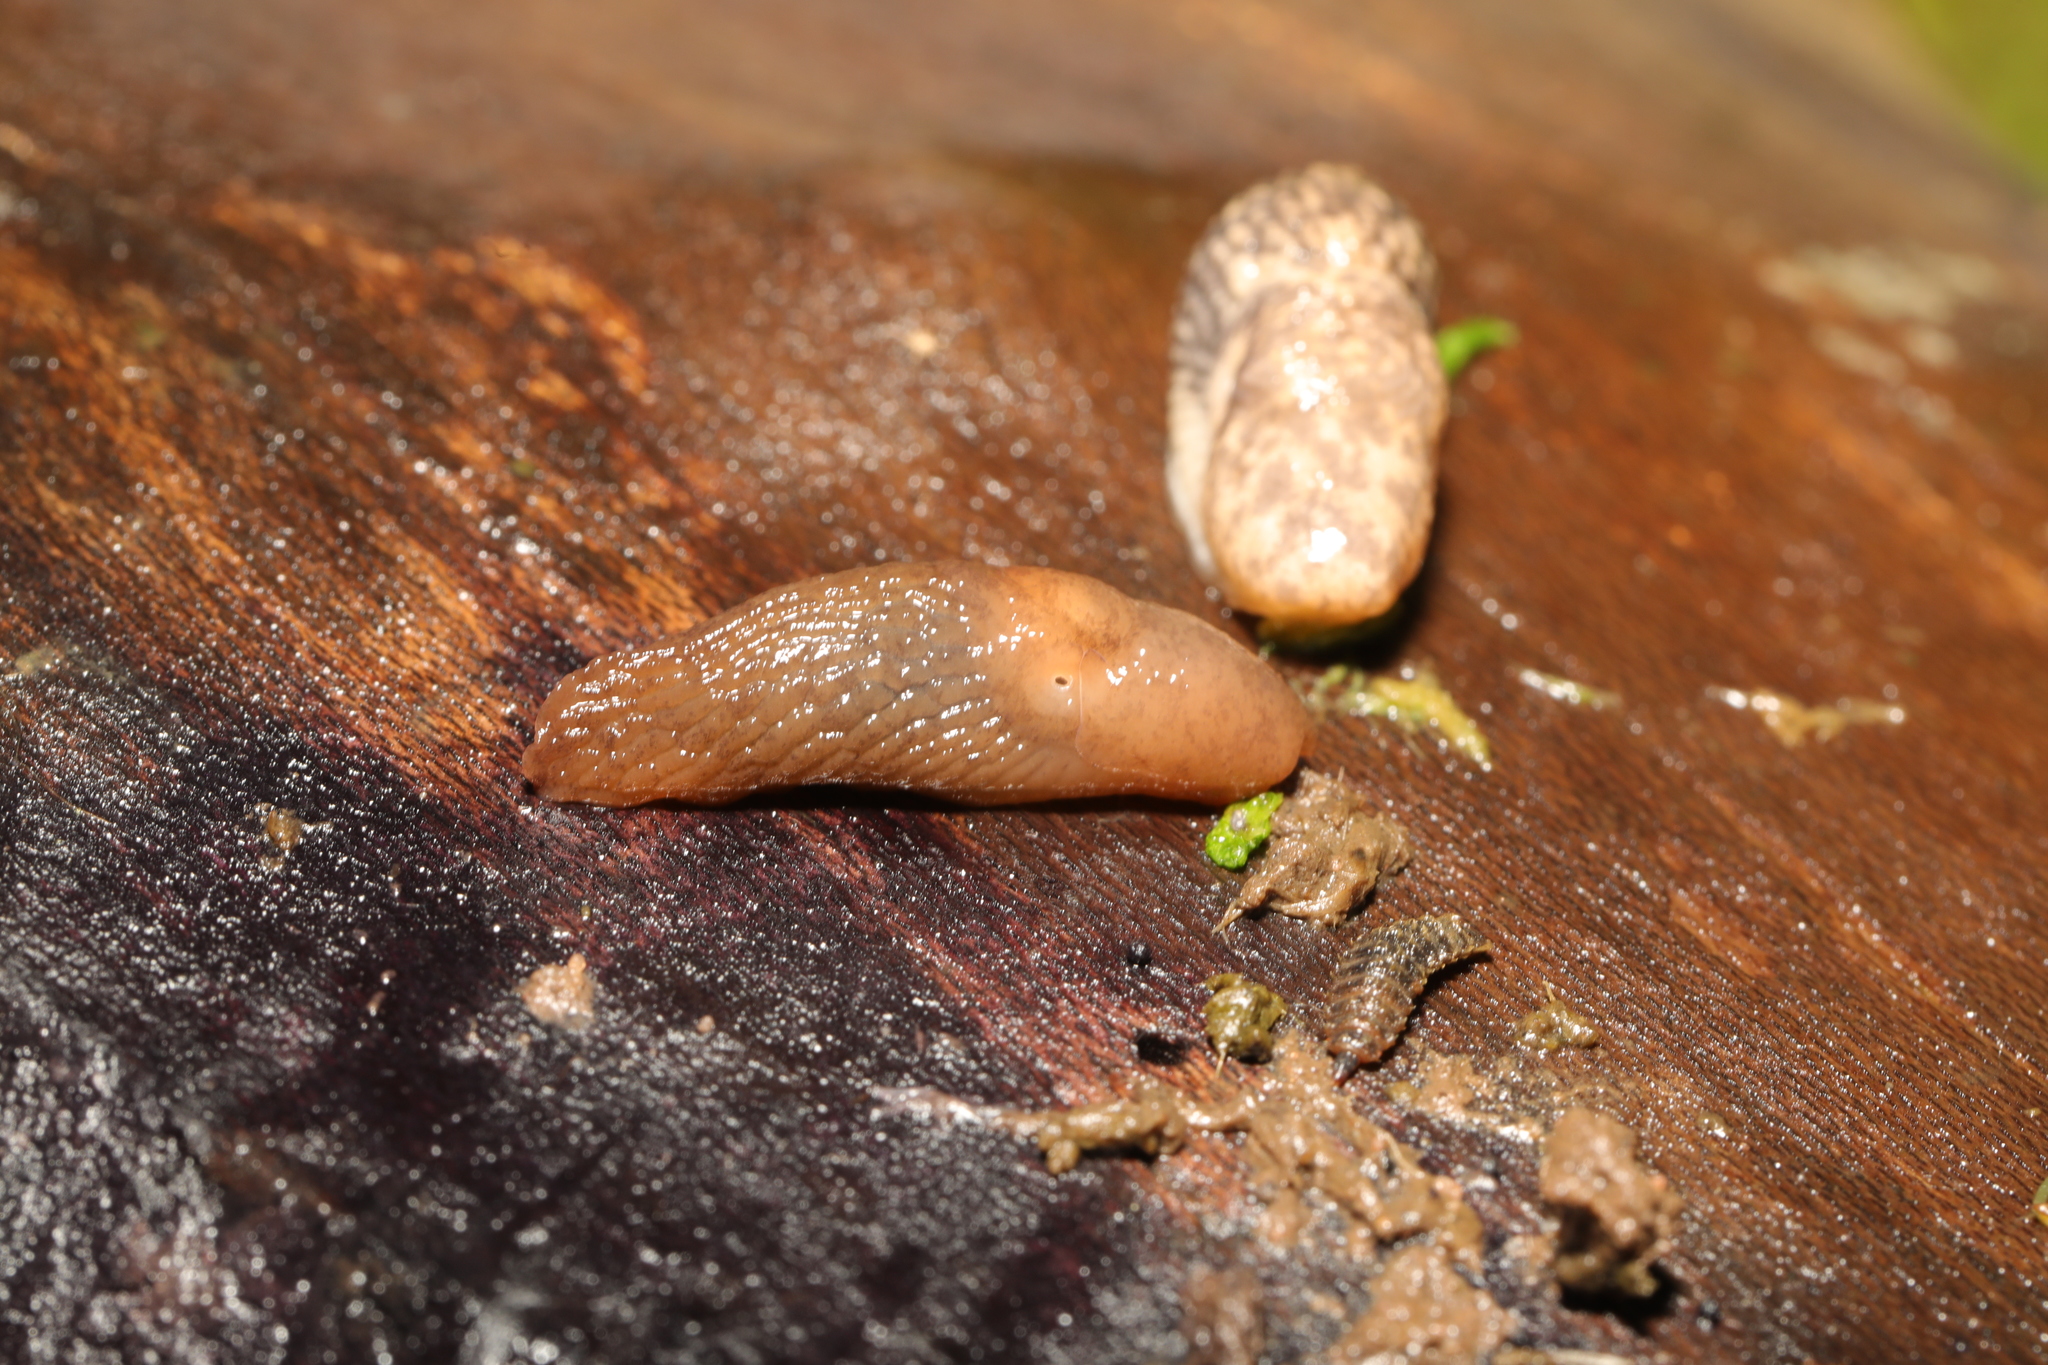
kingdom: Animalia
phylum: Mollusca
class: Gastropoda
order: Stylommatophora
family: Agriolimacidae
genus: Deroceras
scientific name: Deroceras invadens
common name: Caruana's slug
